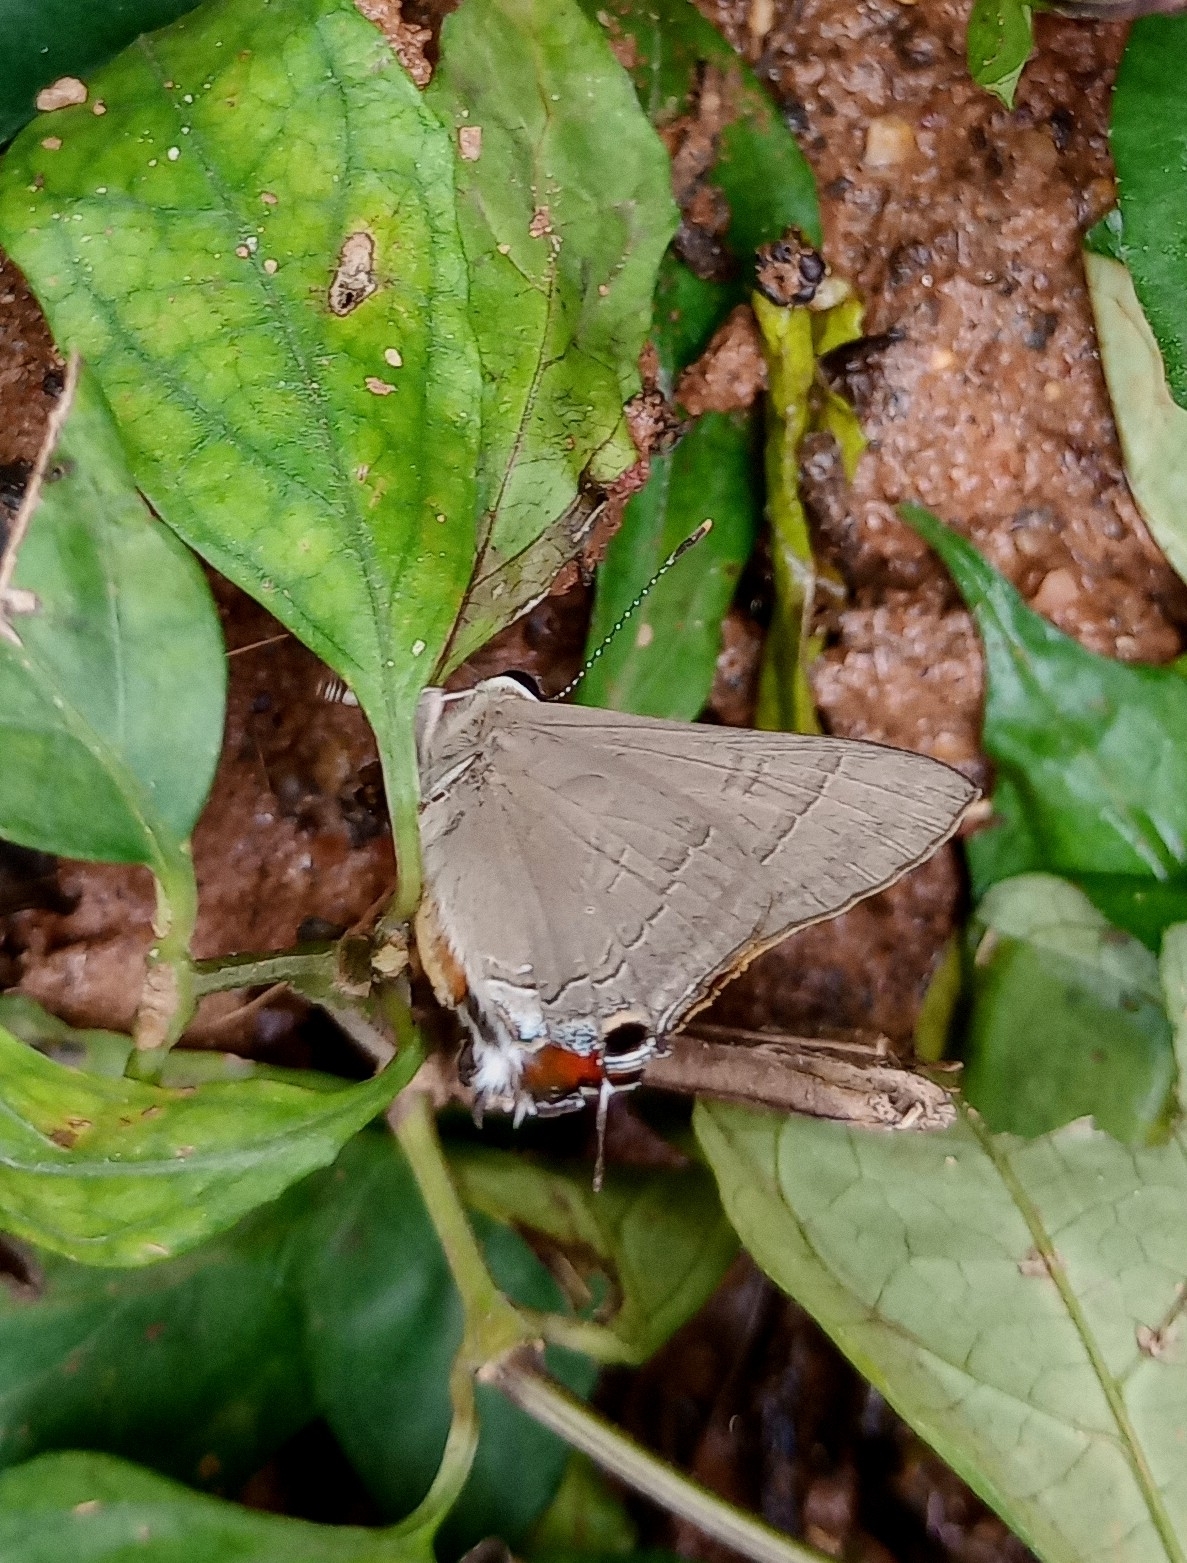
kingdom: Animalia
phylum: Arthropoda
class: Insecta
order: Lepidoptera
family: Lycaenidae
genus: Rapala
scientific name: Rapala iarbus
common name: Common red flash
